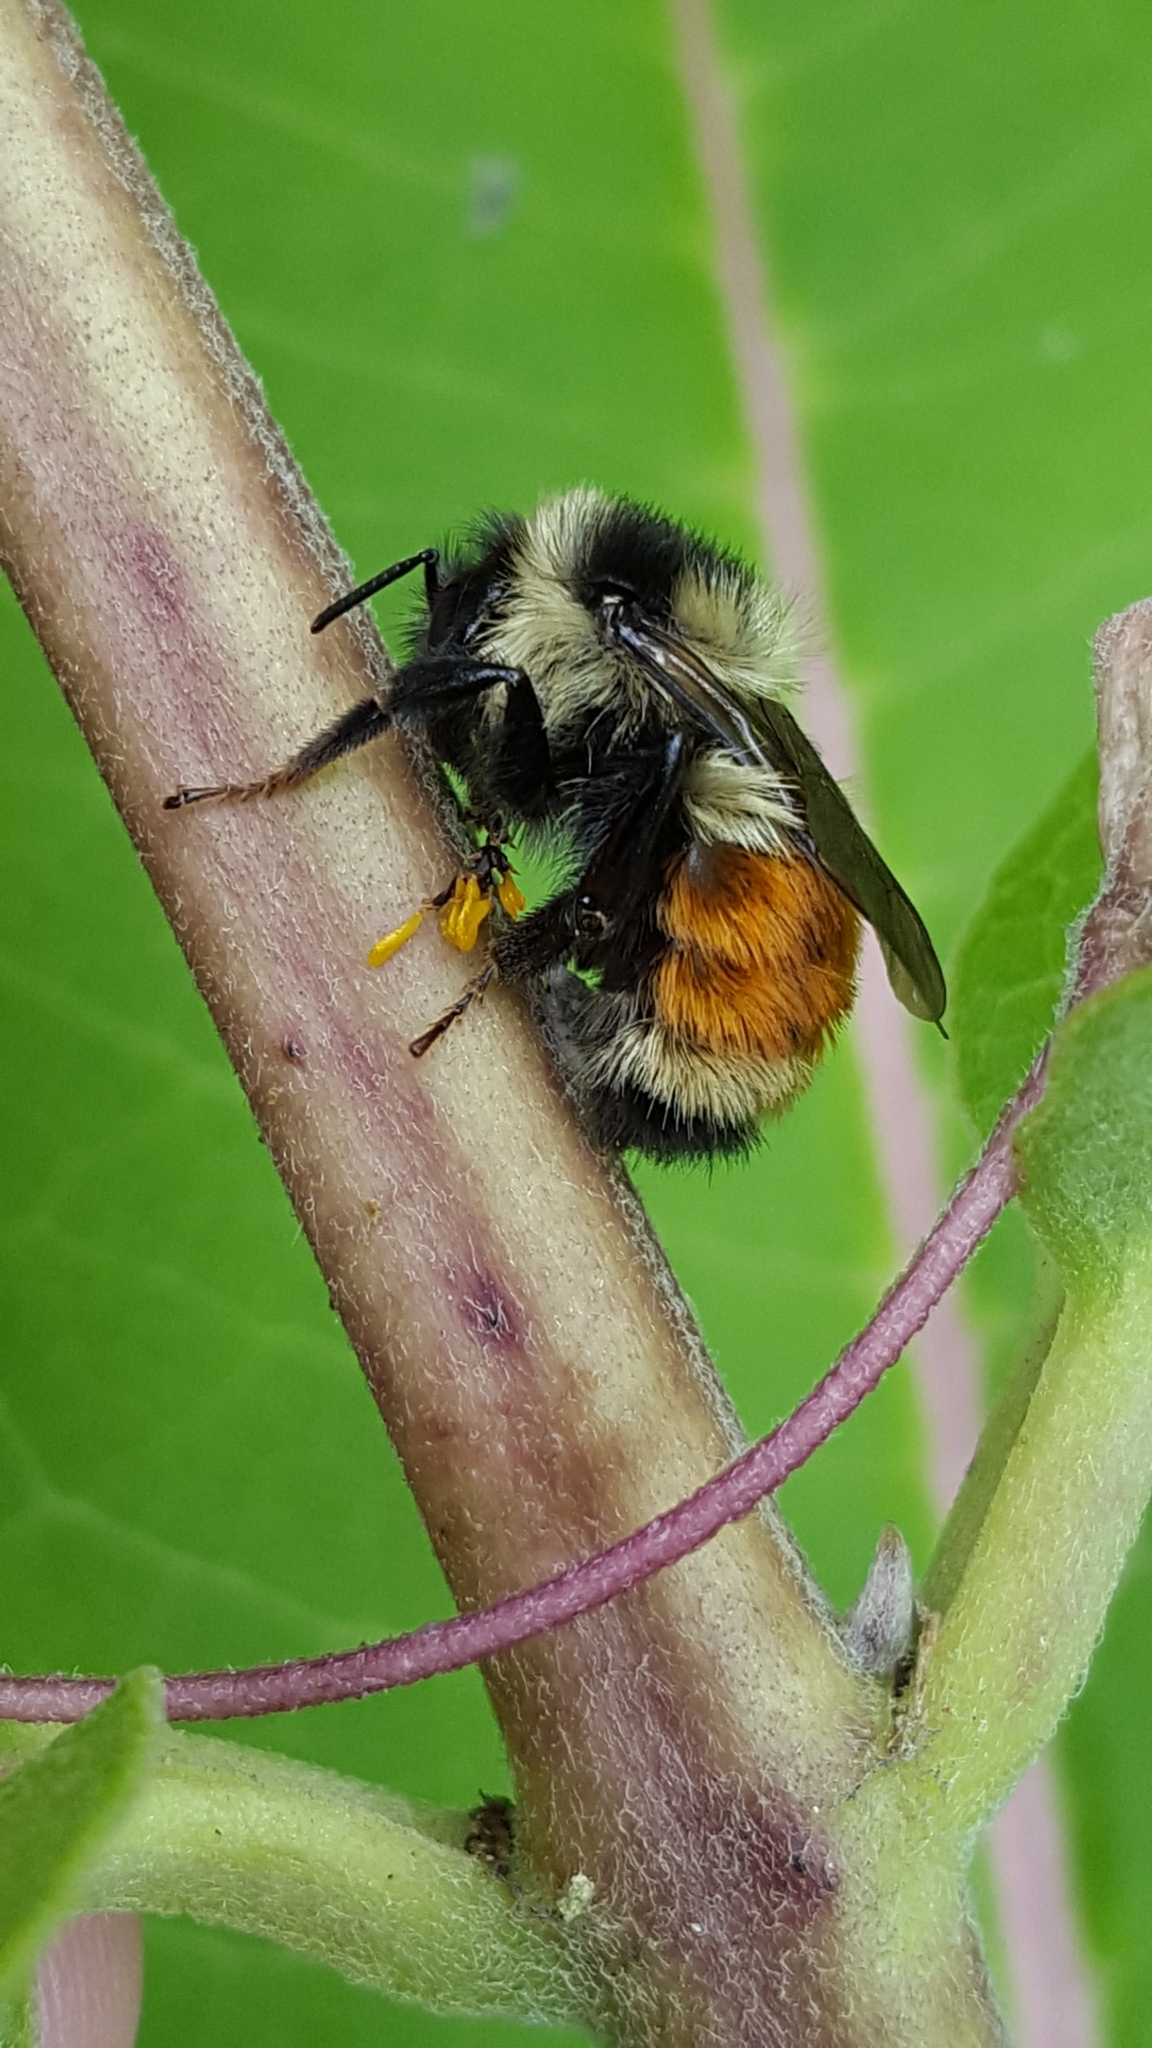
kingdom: Animalia
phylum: Arthropoda
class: Insecta
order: Hymenoptera
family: Apidae
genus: Bombus
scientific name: Bombus ternarius
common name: Tri-colored bumble bee
